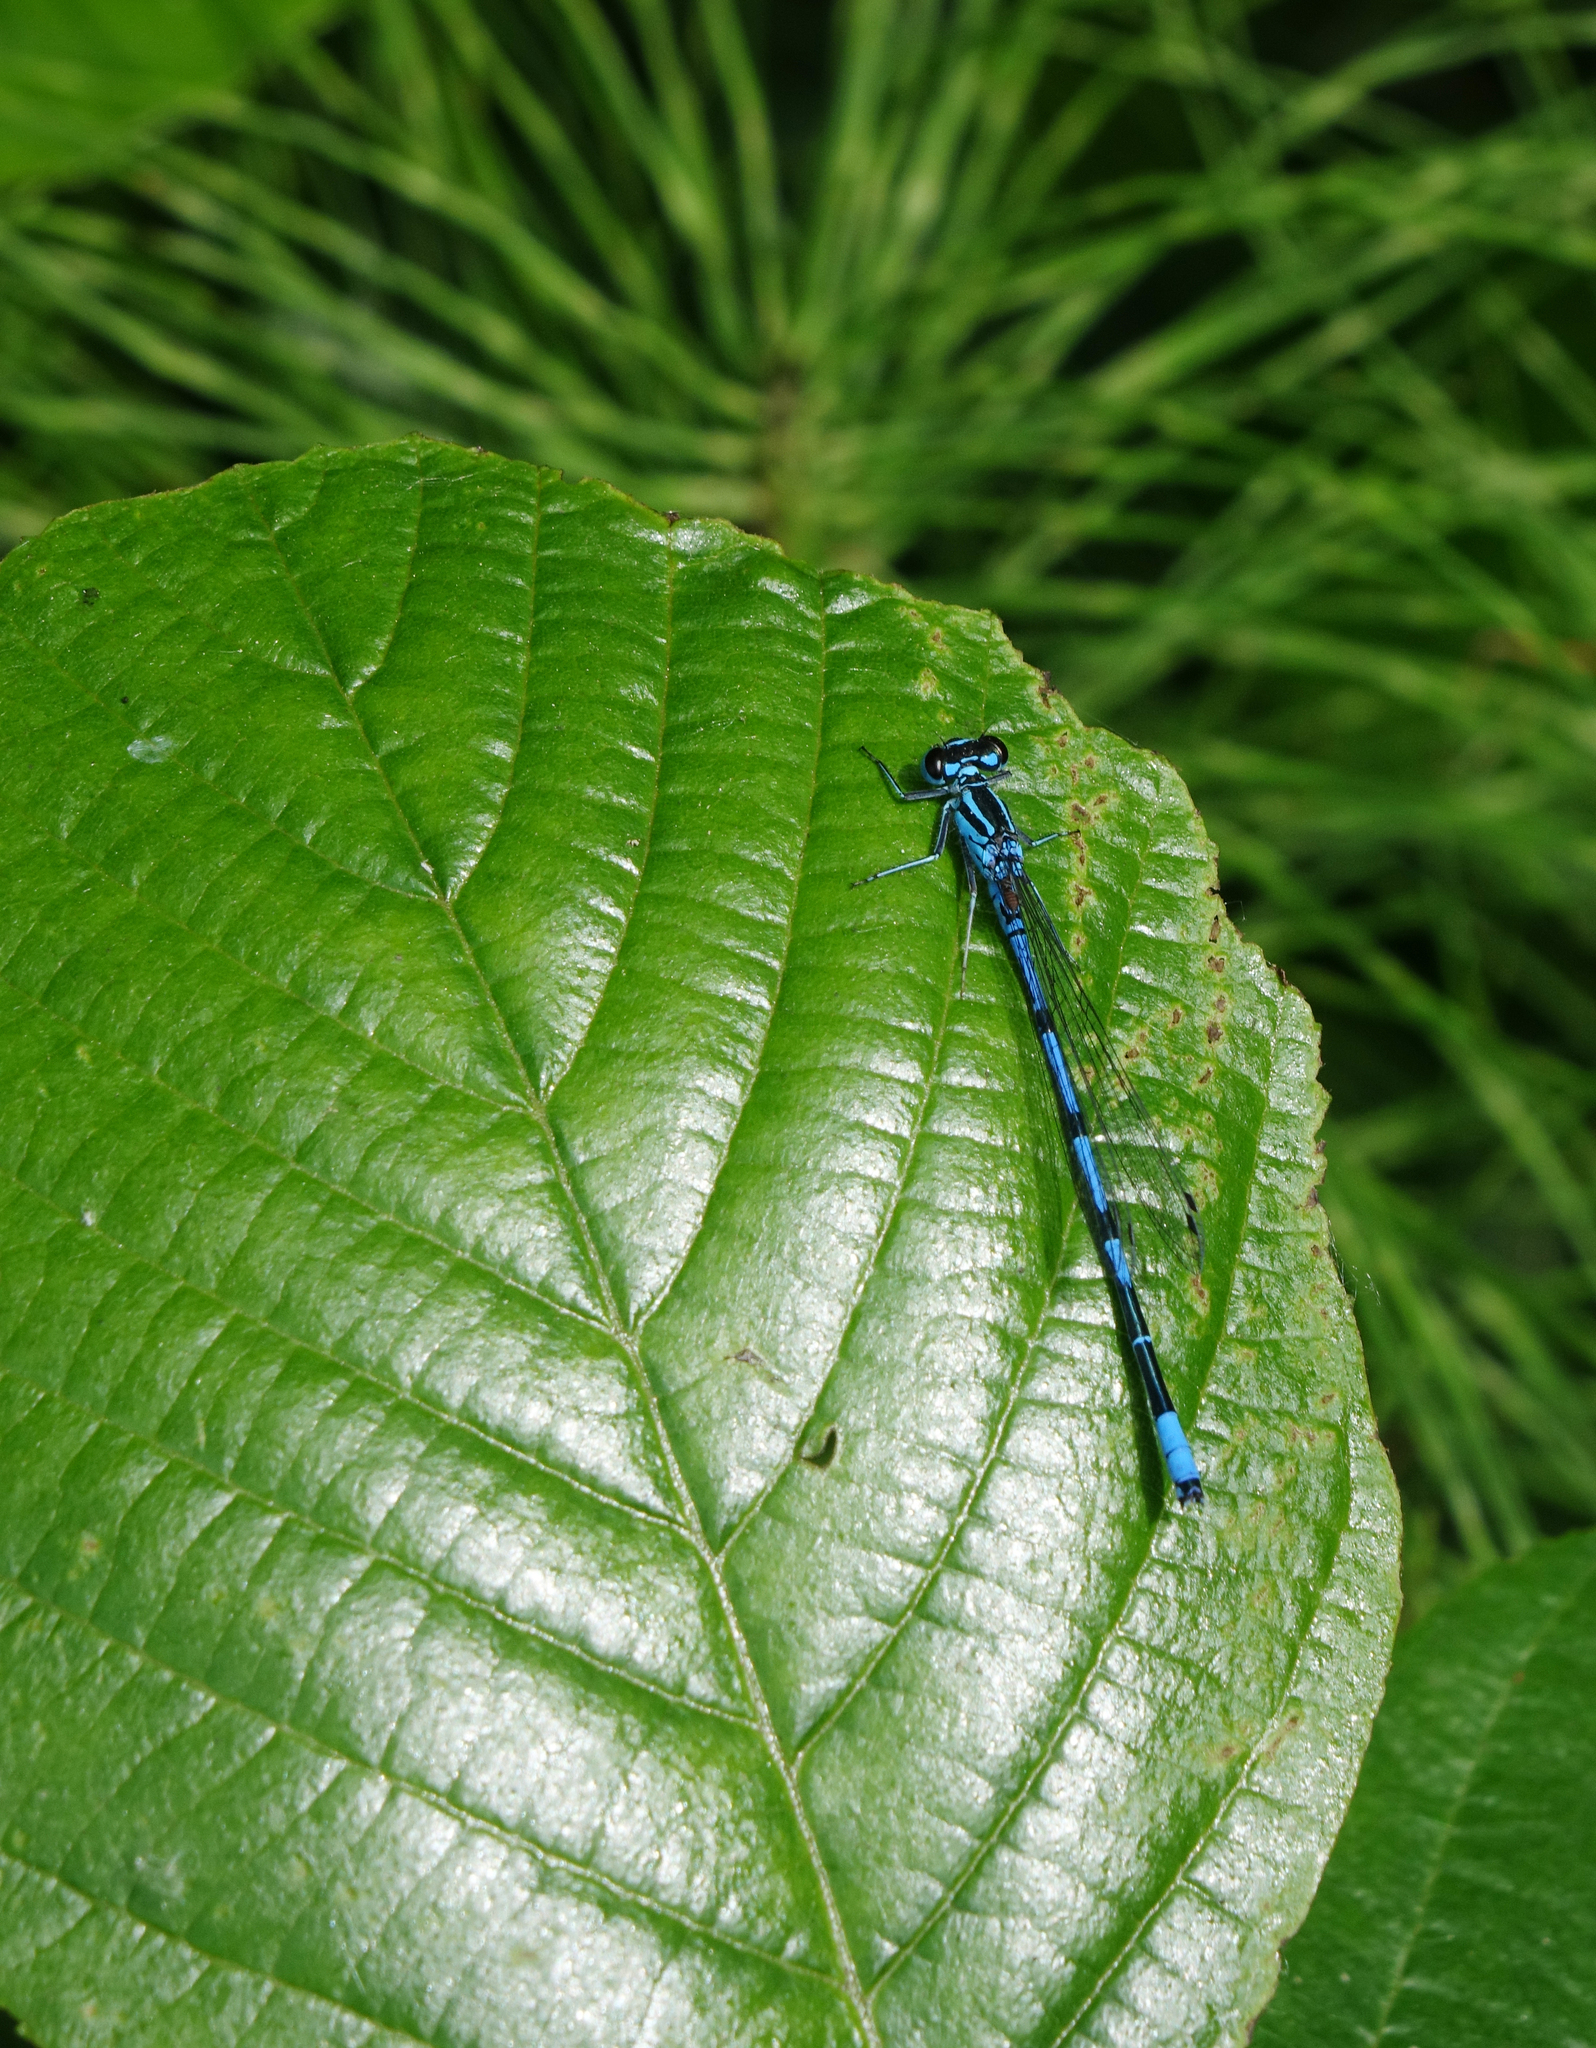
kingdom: Animalia
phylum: Arthropoda
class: Insecta
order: Odonata
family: Coenagrionidae
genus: Coenagrion
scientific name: Coenagrion australocaspicum
